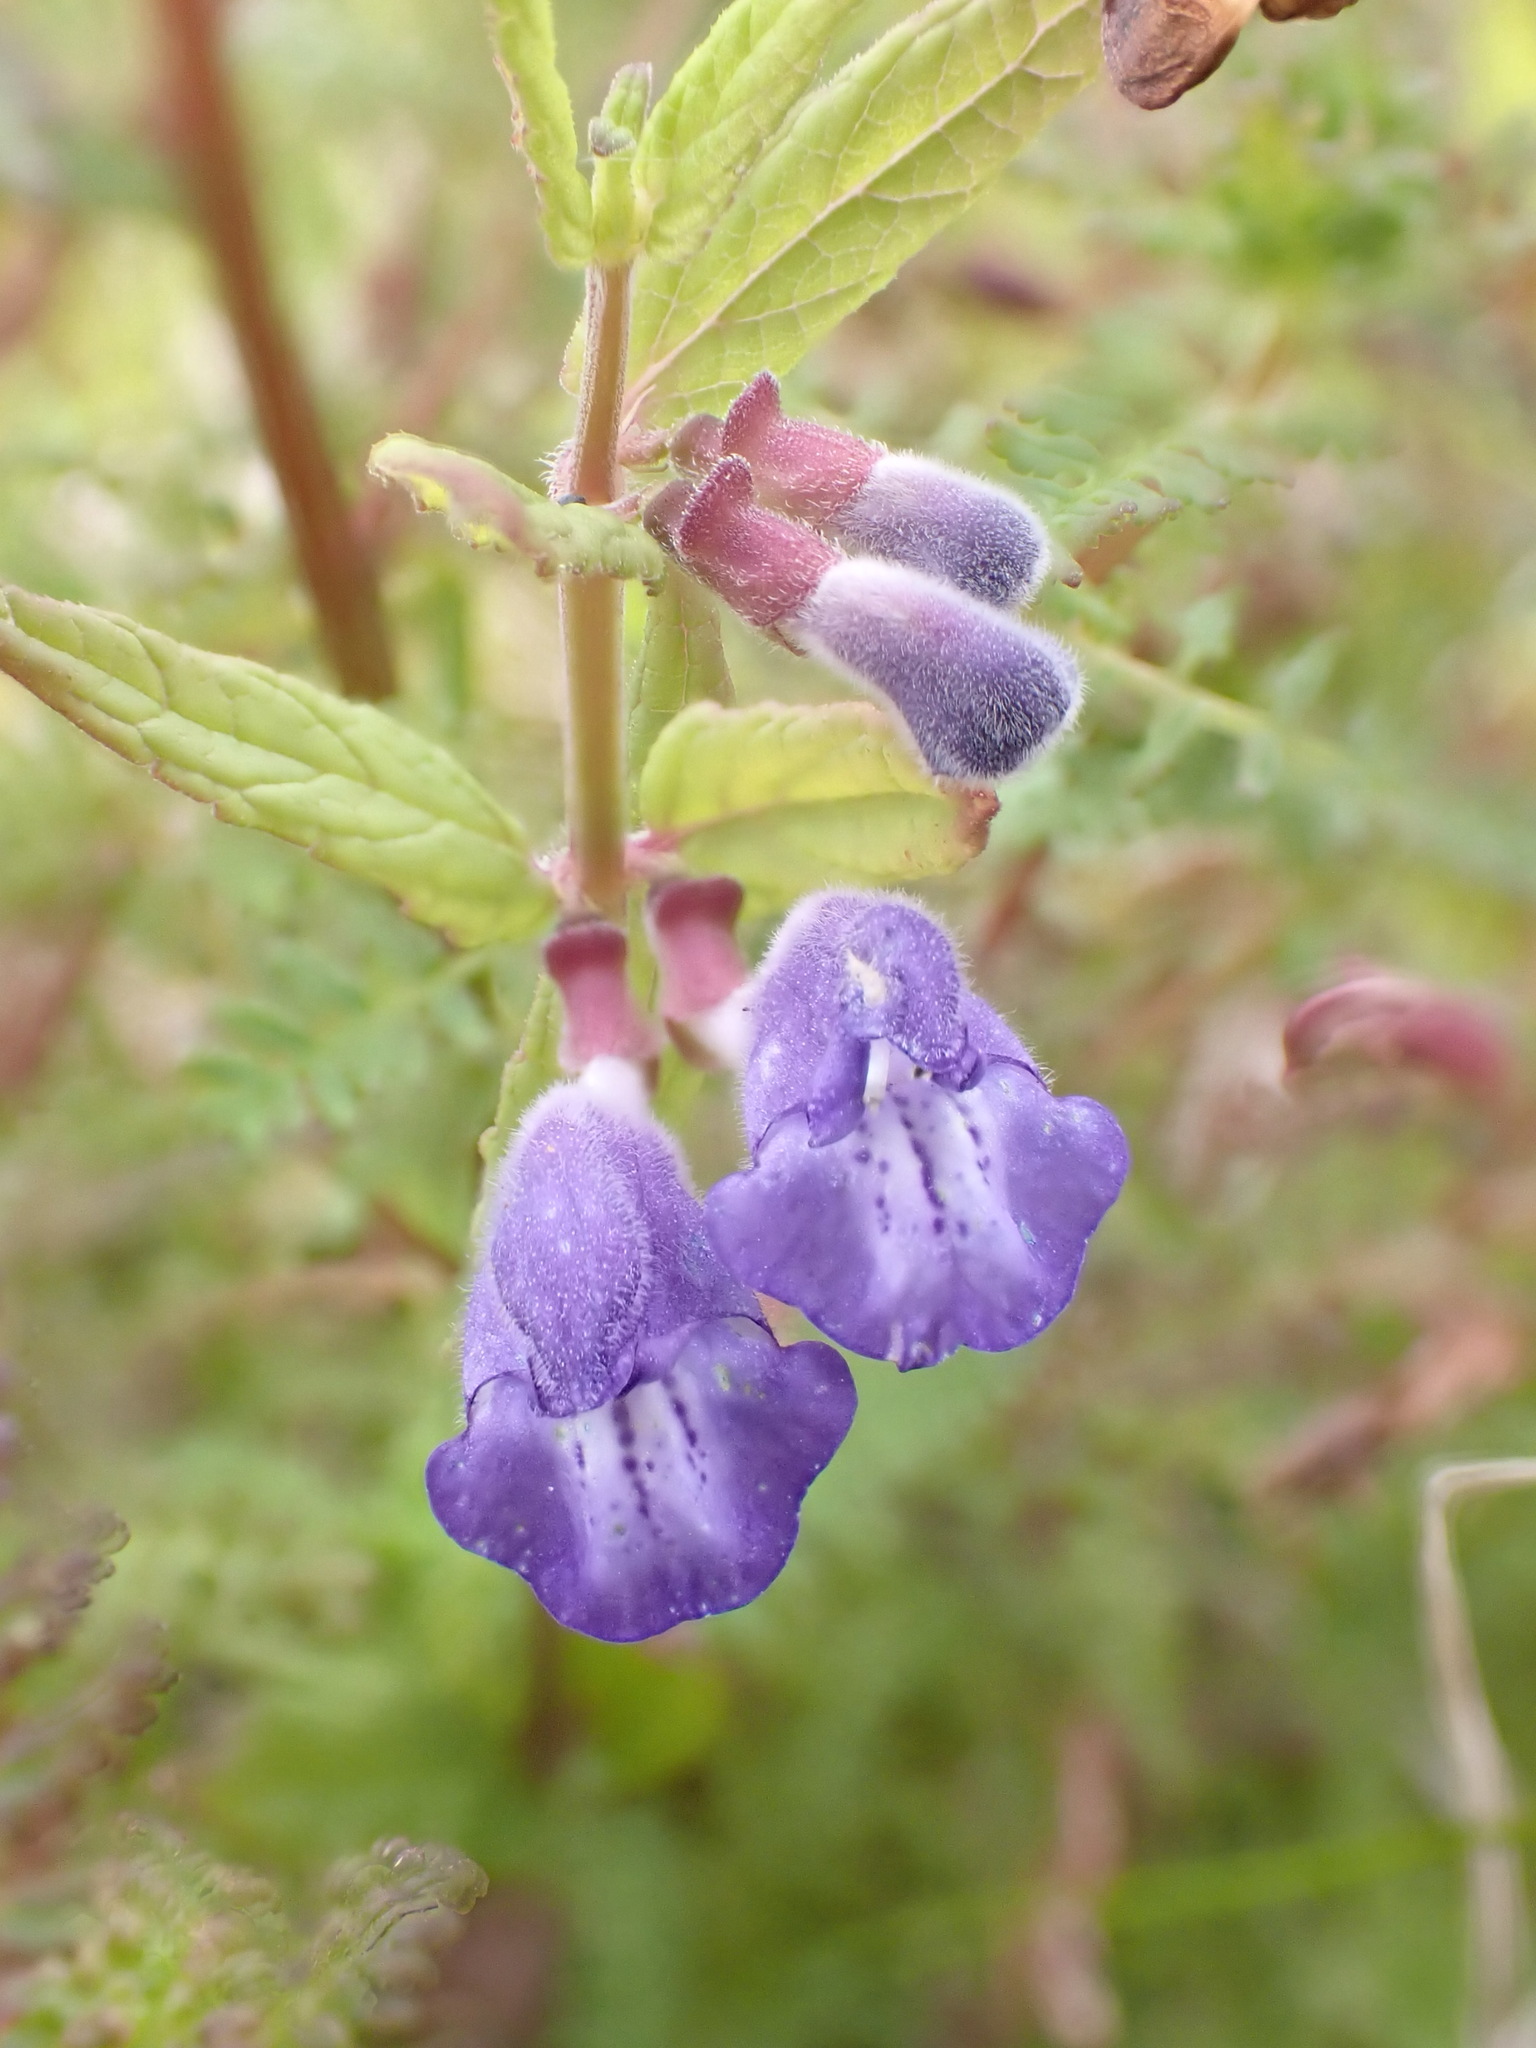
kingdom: Plantae
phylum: Tracheophyta
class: Magnoliopsida
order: Lamiales
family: Lamiaceae
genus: Scutellaria
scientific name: Scutellaria galericulata
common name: Skullcap
